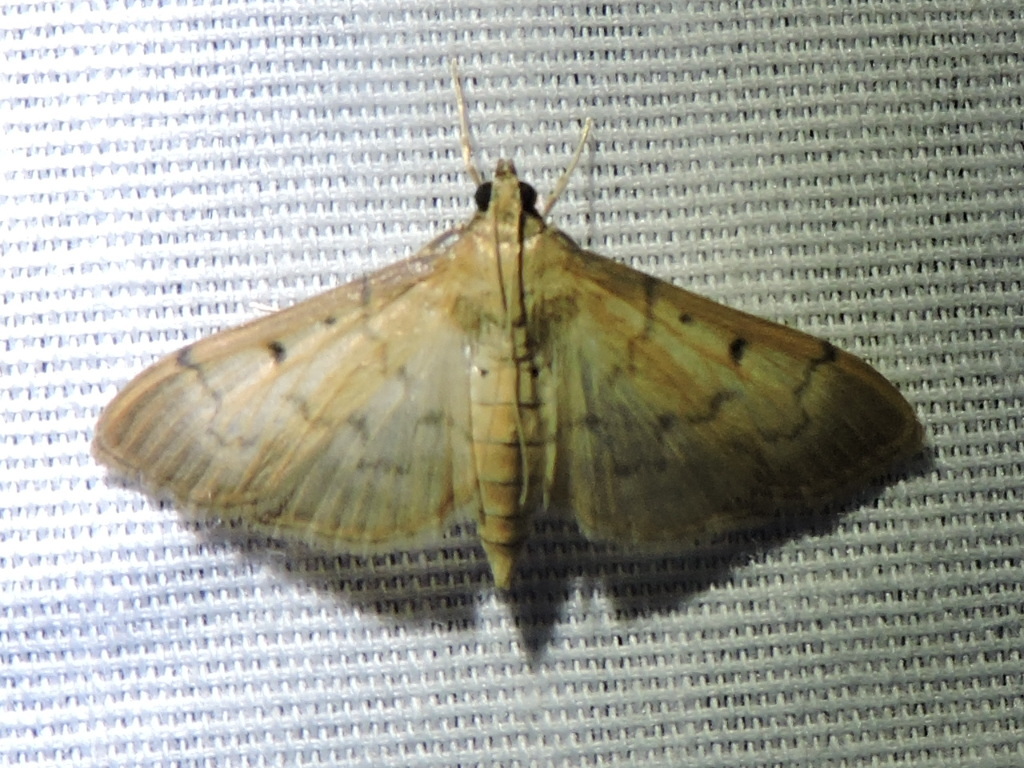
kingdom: Animalia
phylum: Arthropoda
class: Insecta
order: Lepidoptera
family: Crambidae
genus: Herpetogramma
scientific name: Herpetogramma bipunctalis
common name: Southern beet webworm
